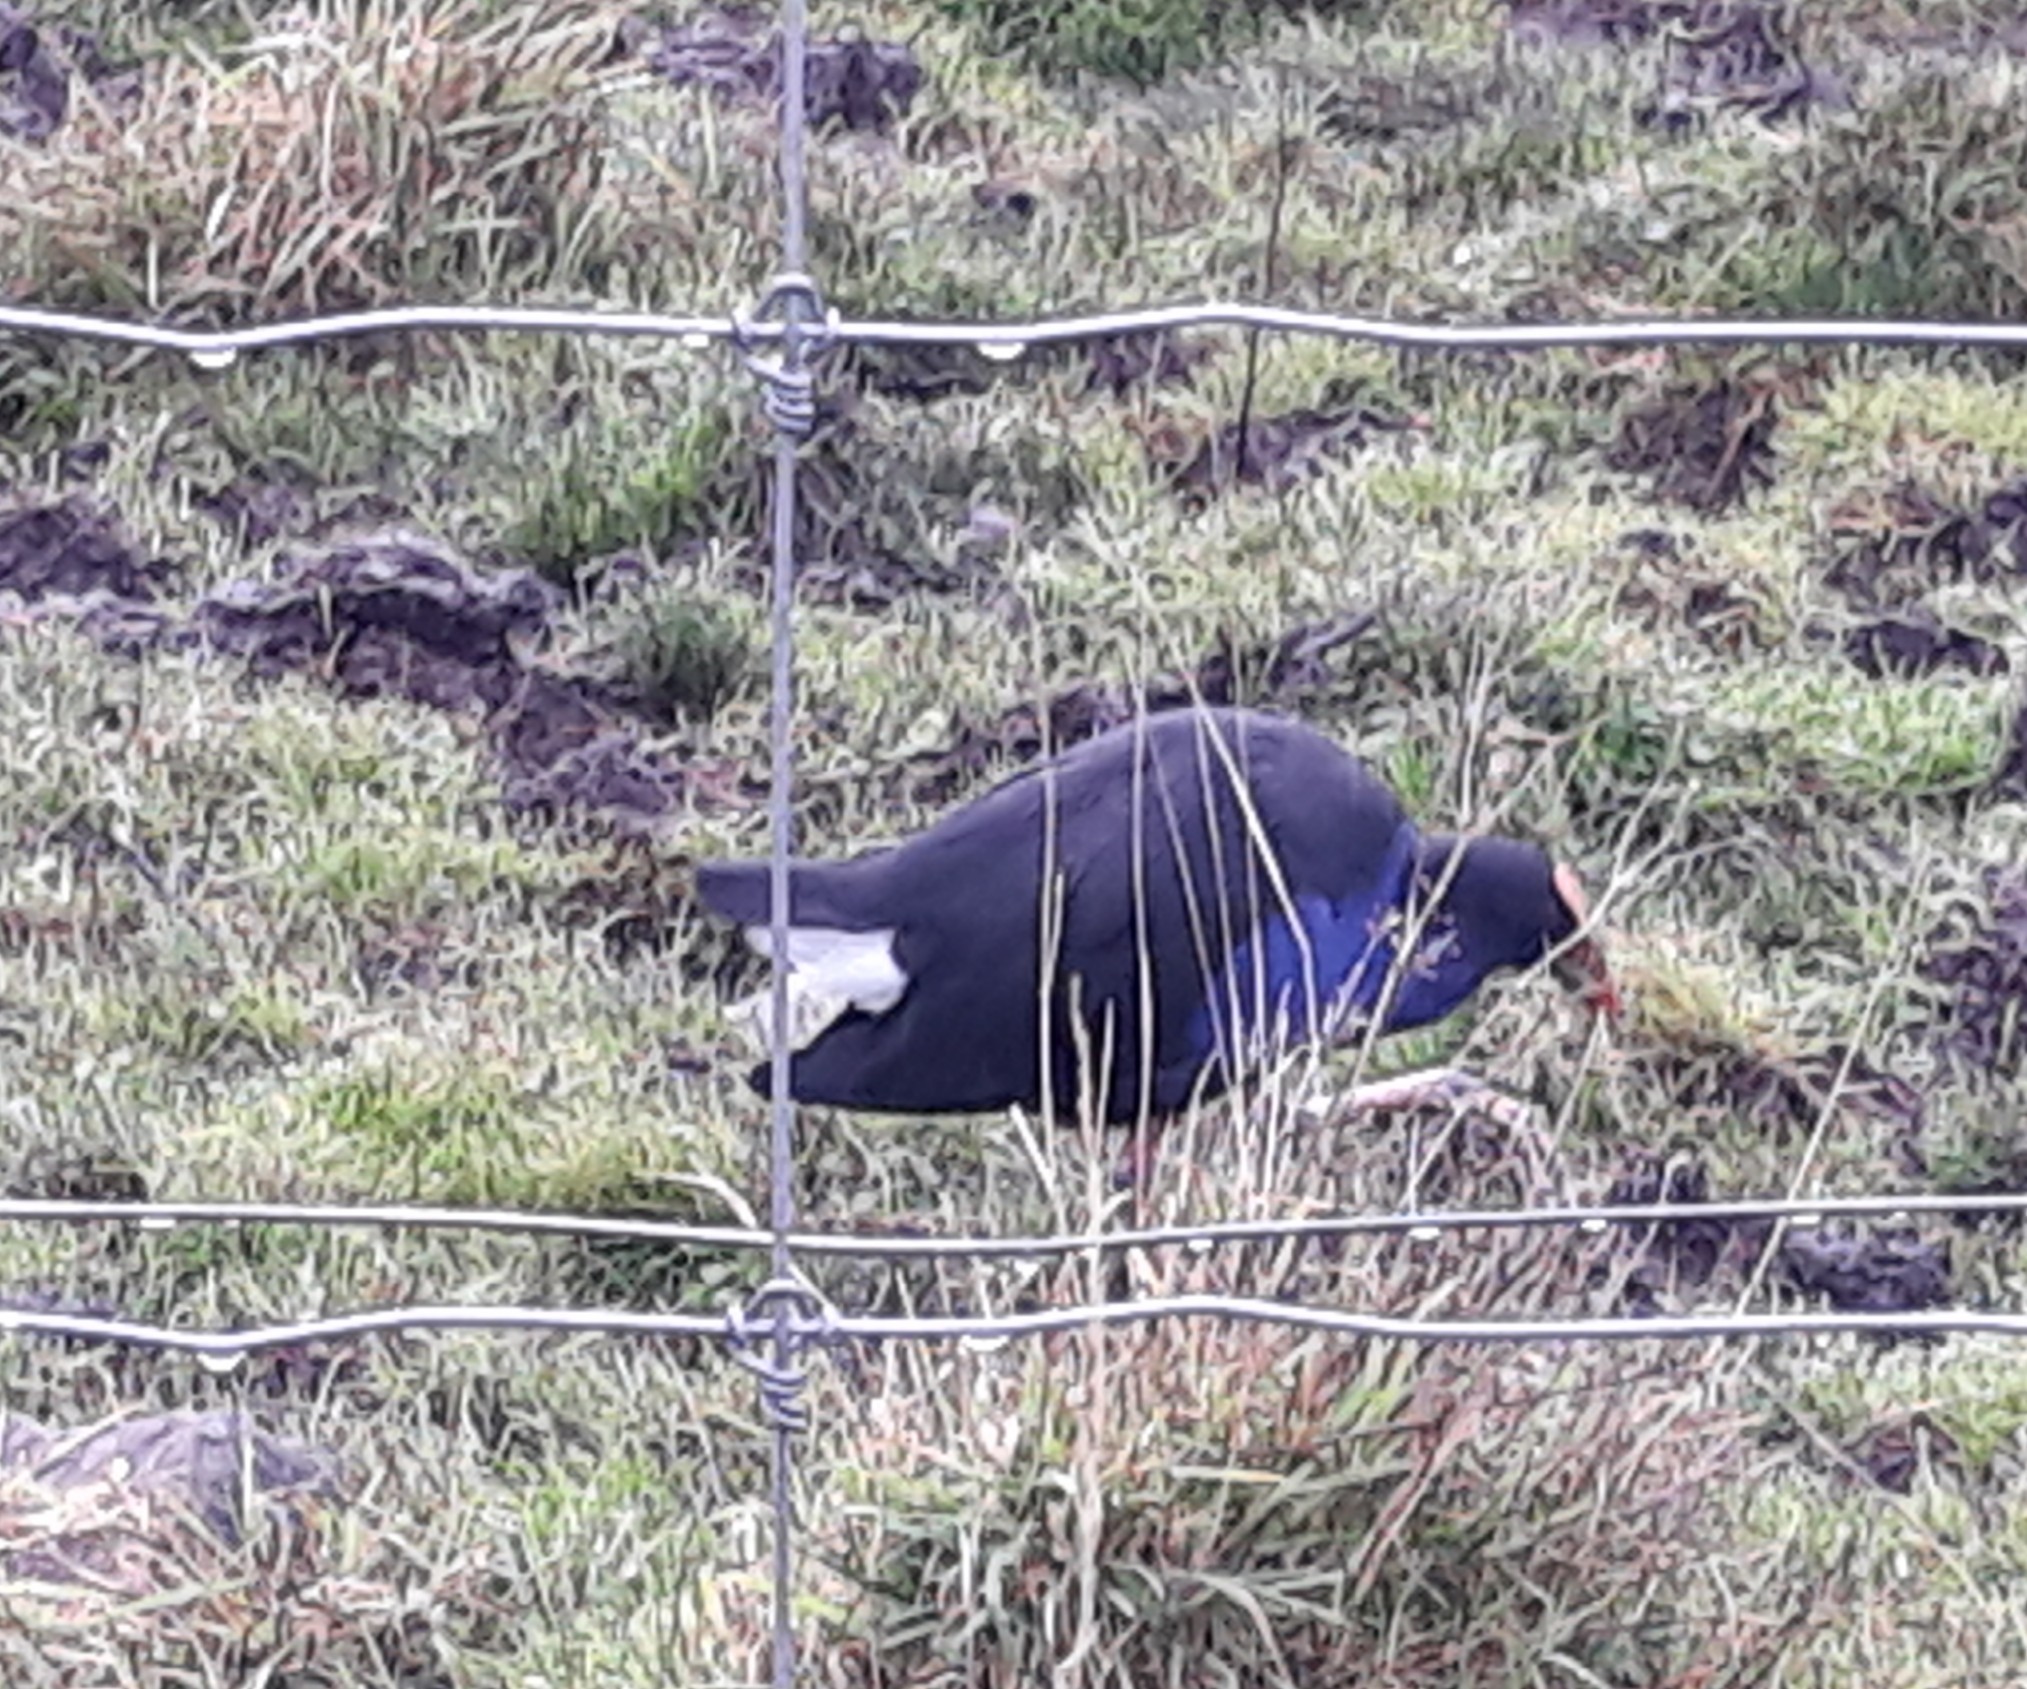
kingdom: Animalia
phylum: Chordata
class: Aves
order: Gruiformes
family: Rallidae
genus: Porphyrio
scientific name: Porphyrio melanotus
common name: Australasian swamphen
